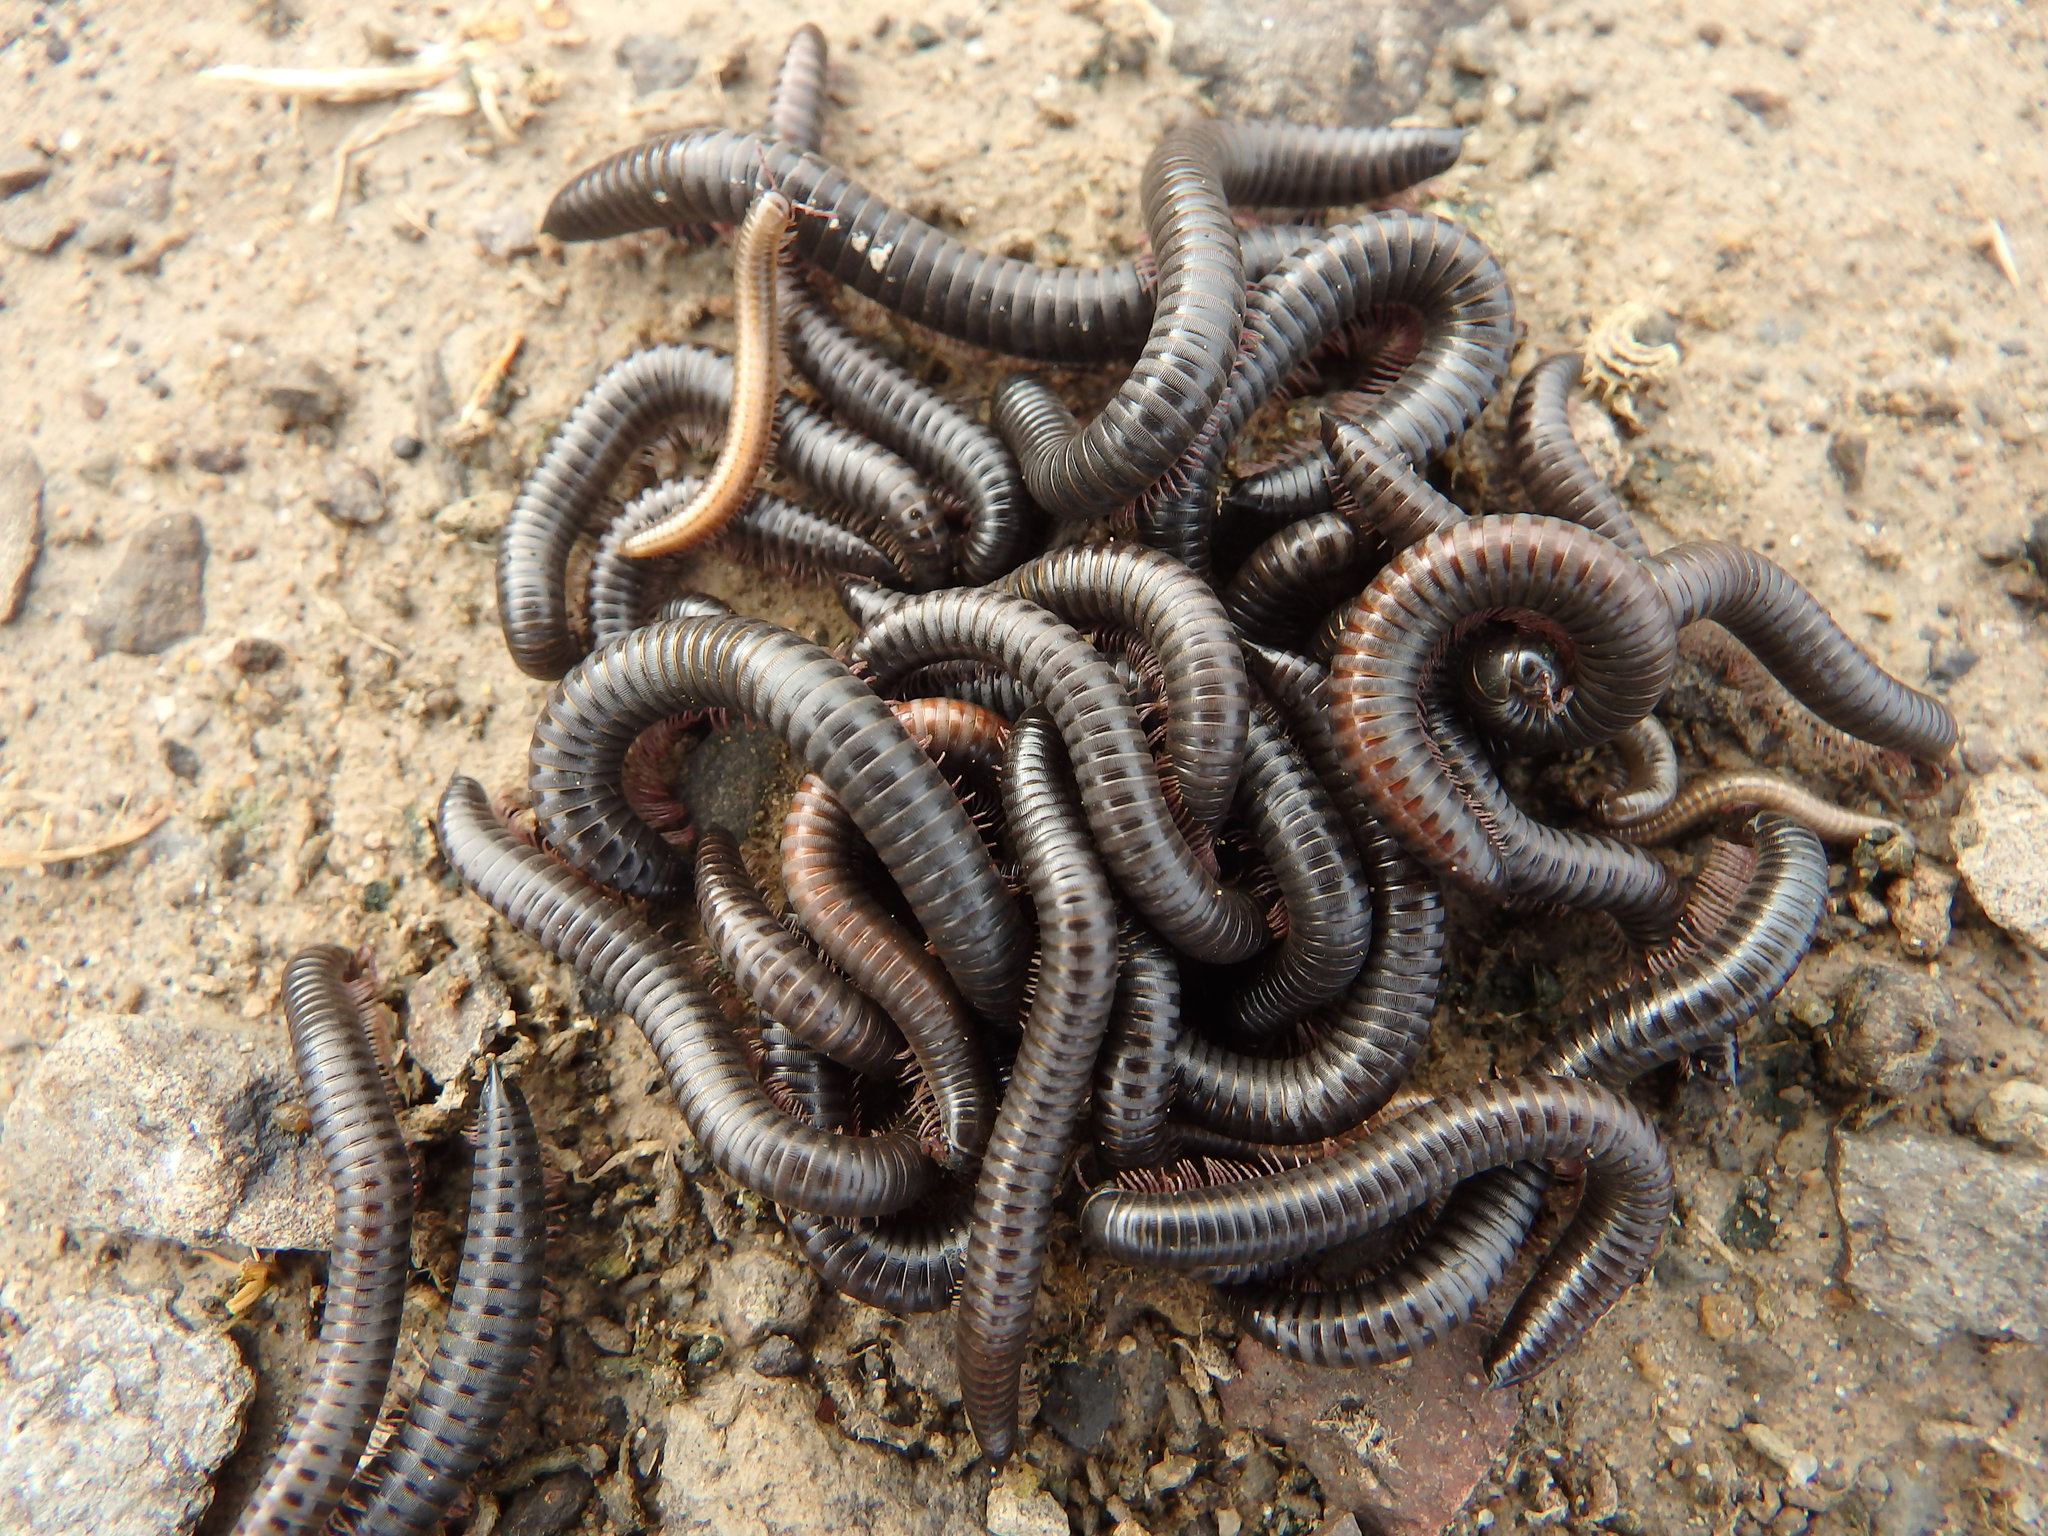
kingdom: Animalia
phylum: Arthropoda
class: Diplopoda
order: Julida
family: Julidae
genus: Ommatoiulus
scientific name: Ommatoiulus moreleti
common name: Portuguese millipede
